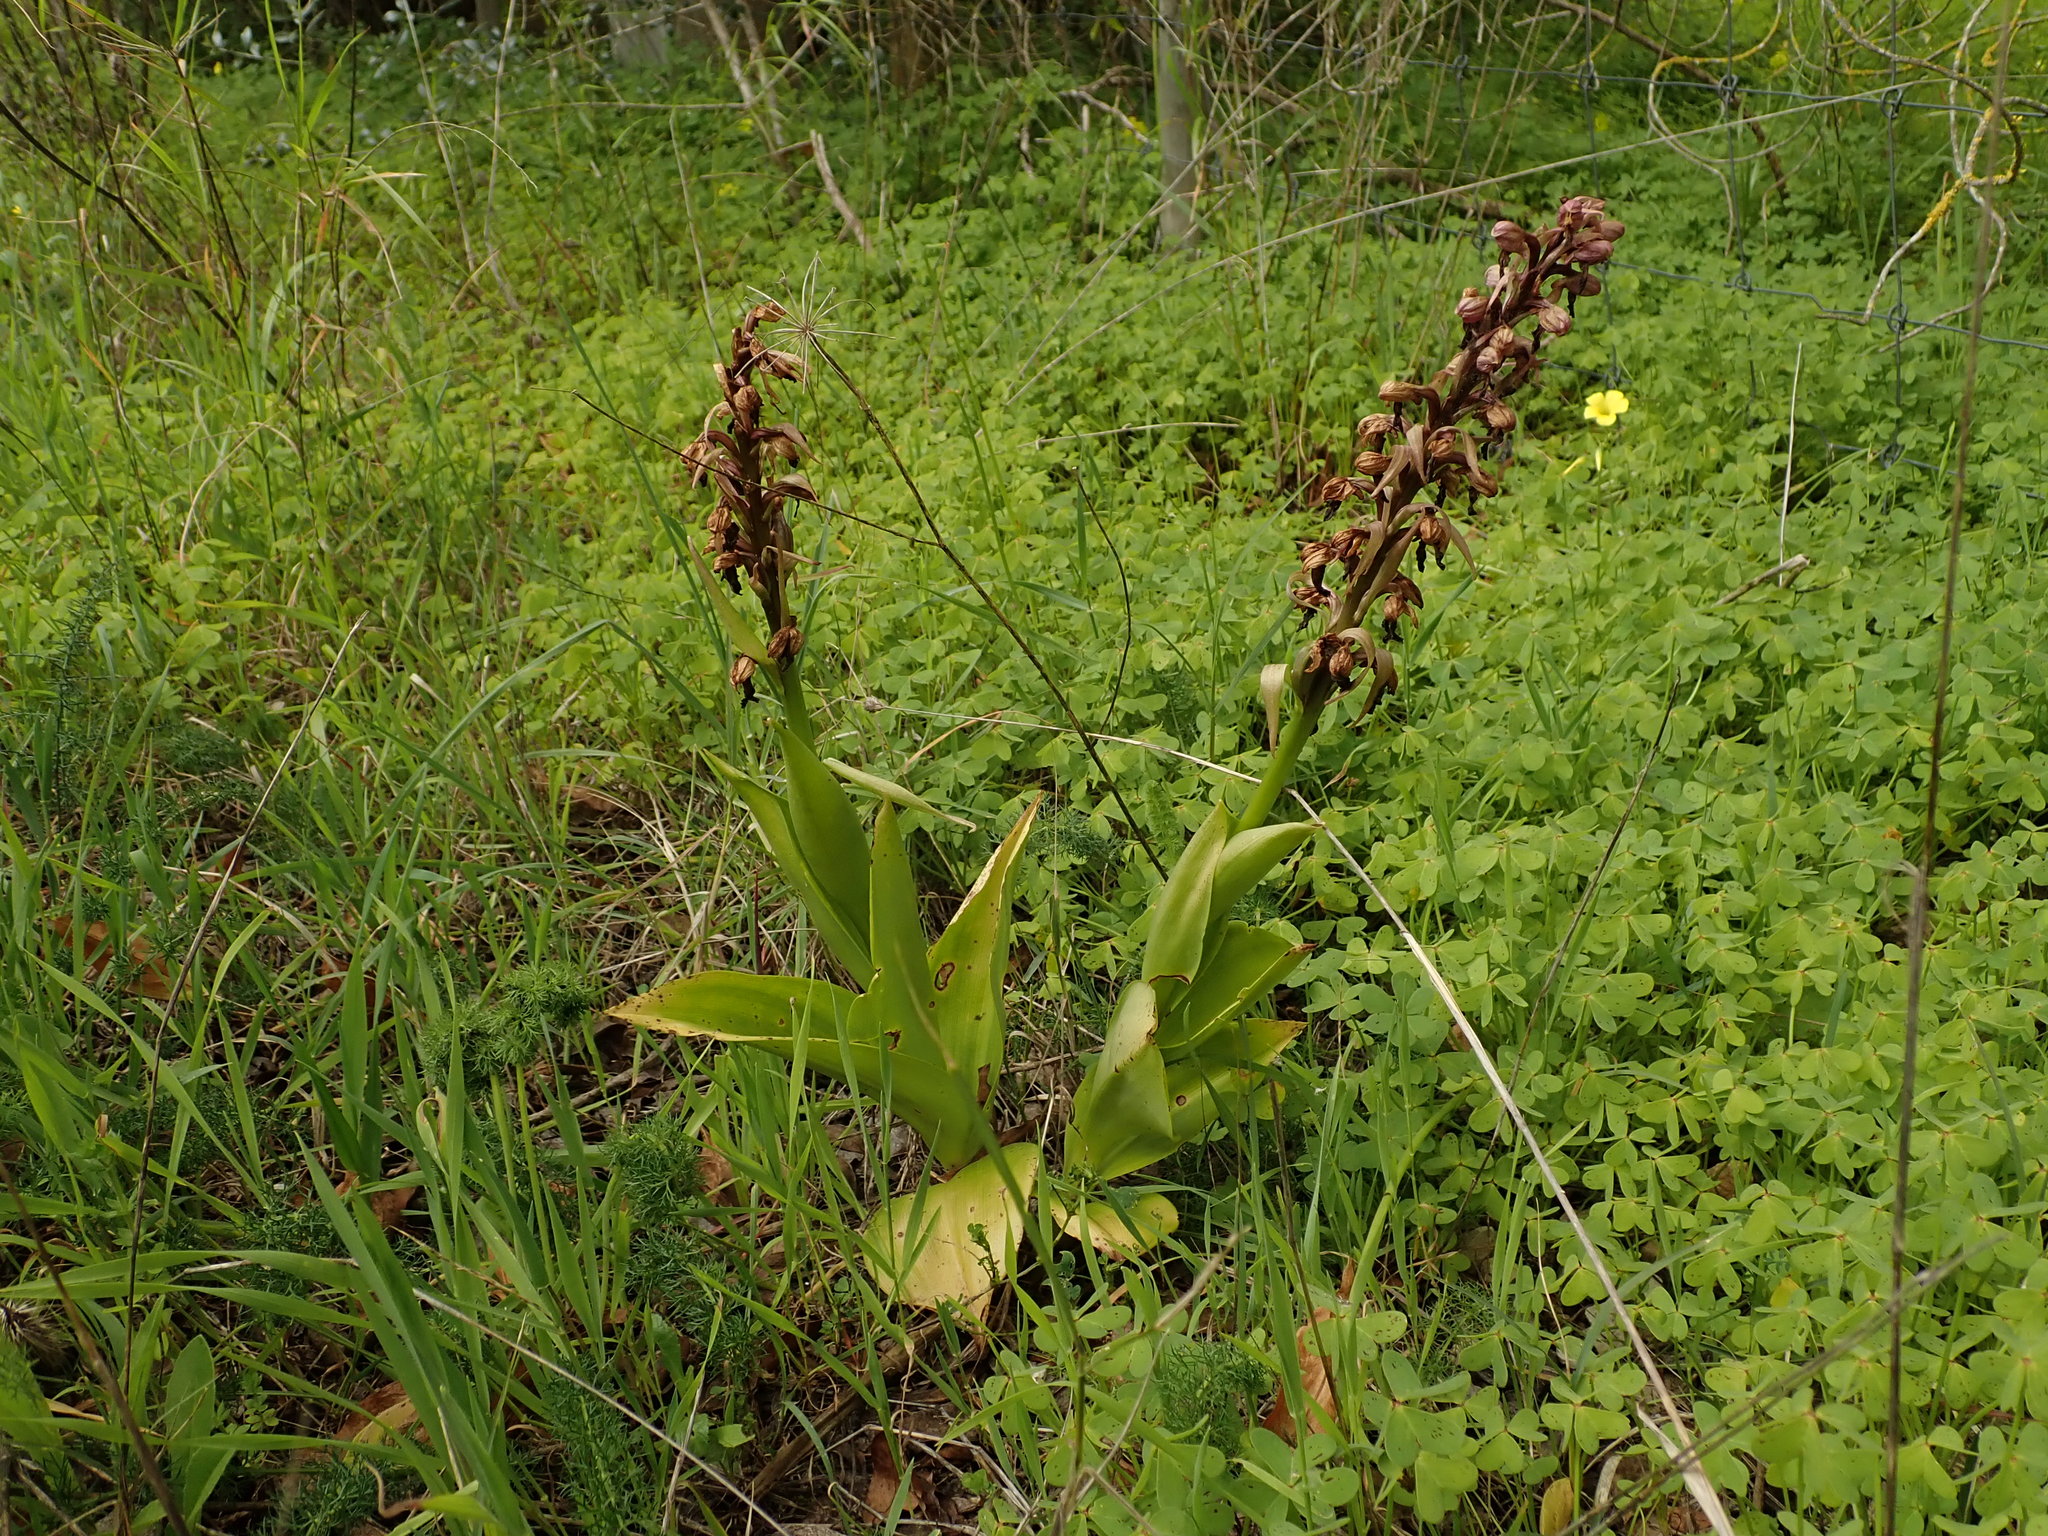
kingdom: Plantae
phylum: Tracheophyta
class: Liliopsida
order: Asparagales
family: Orchidaceae
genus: Himantoglossum
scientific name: Himantoglossum robertianum
